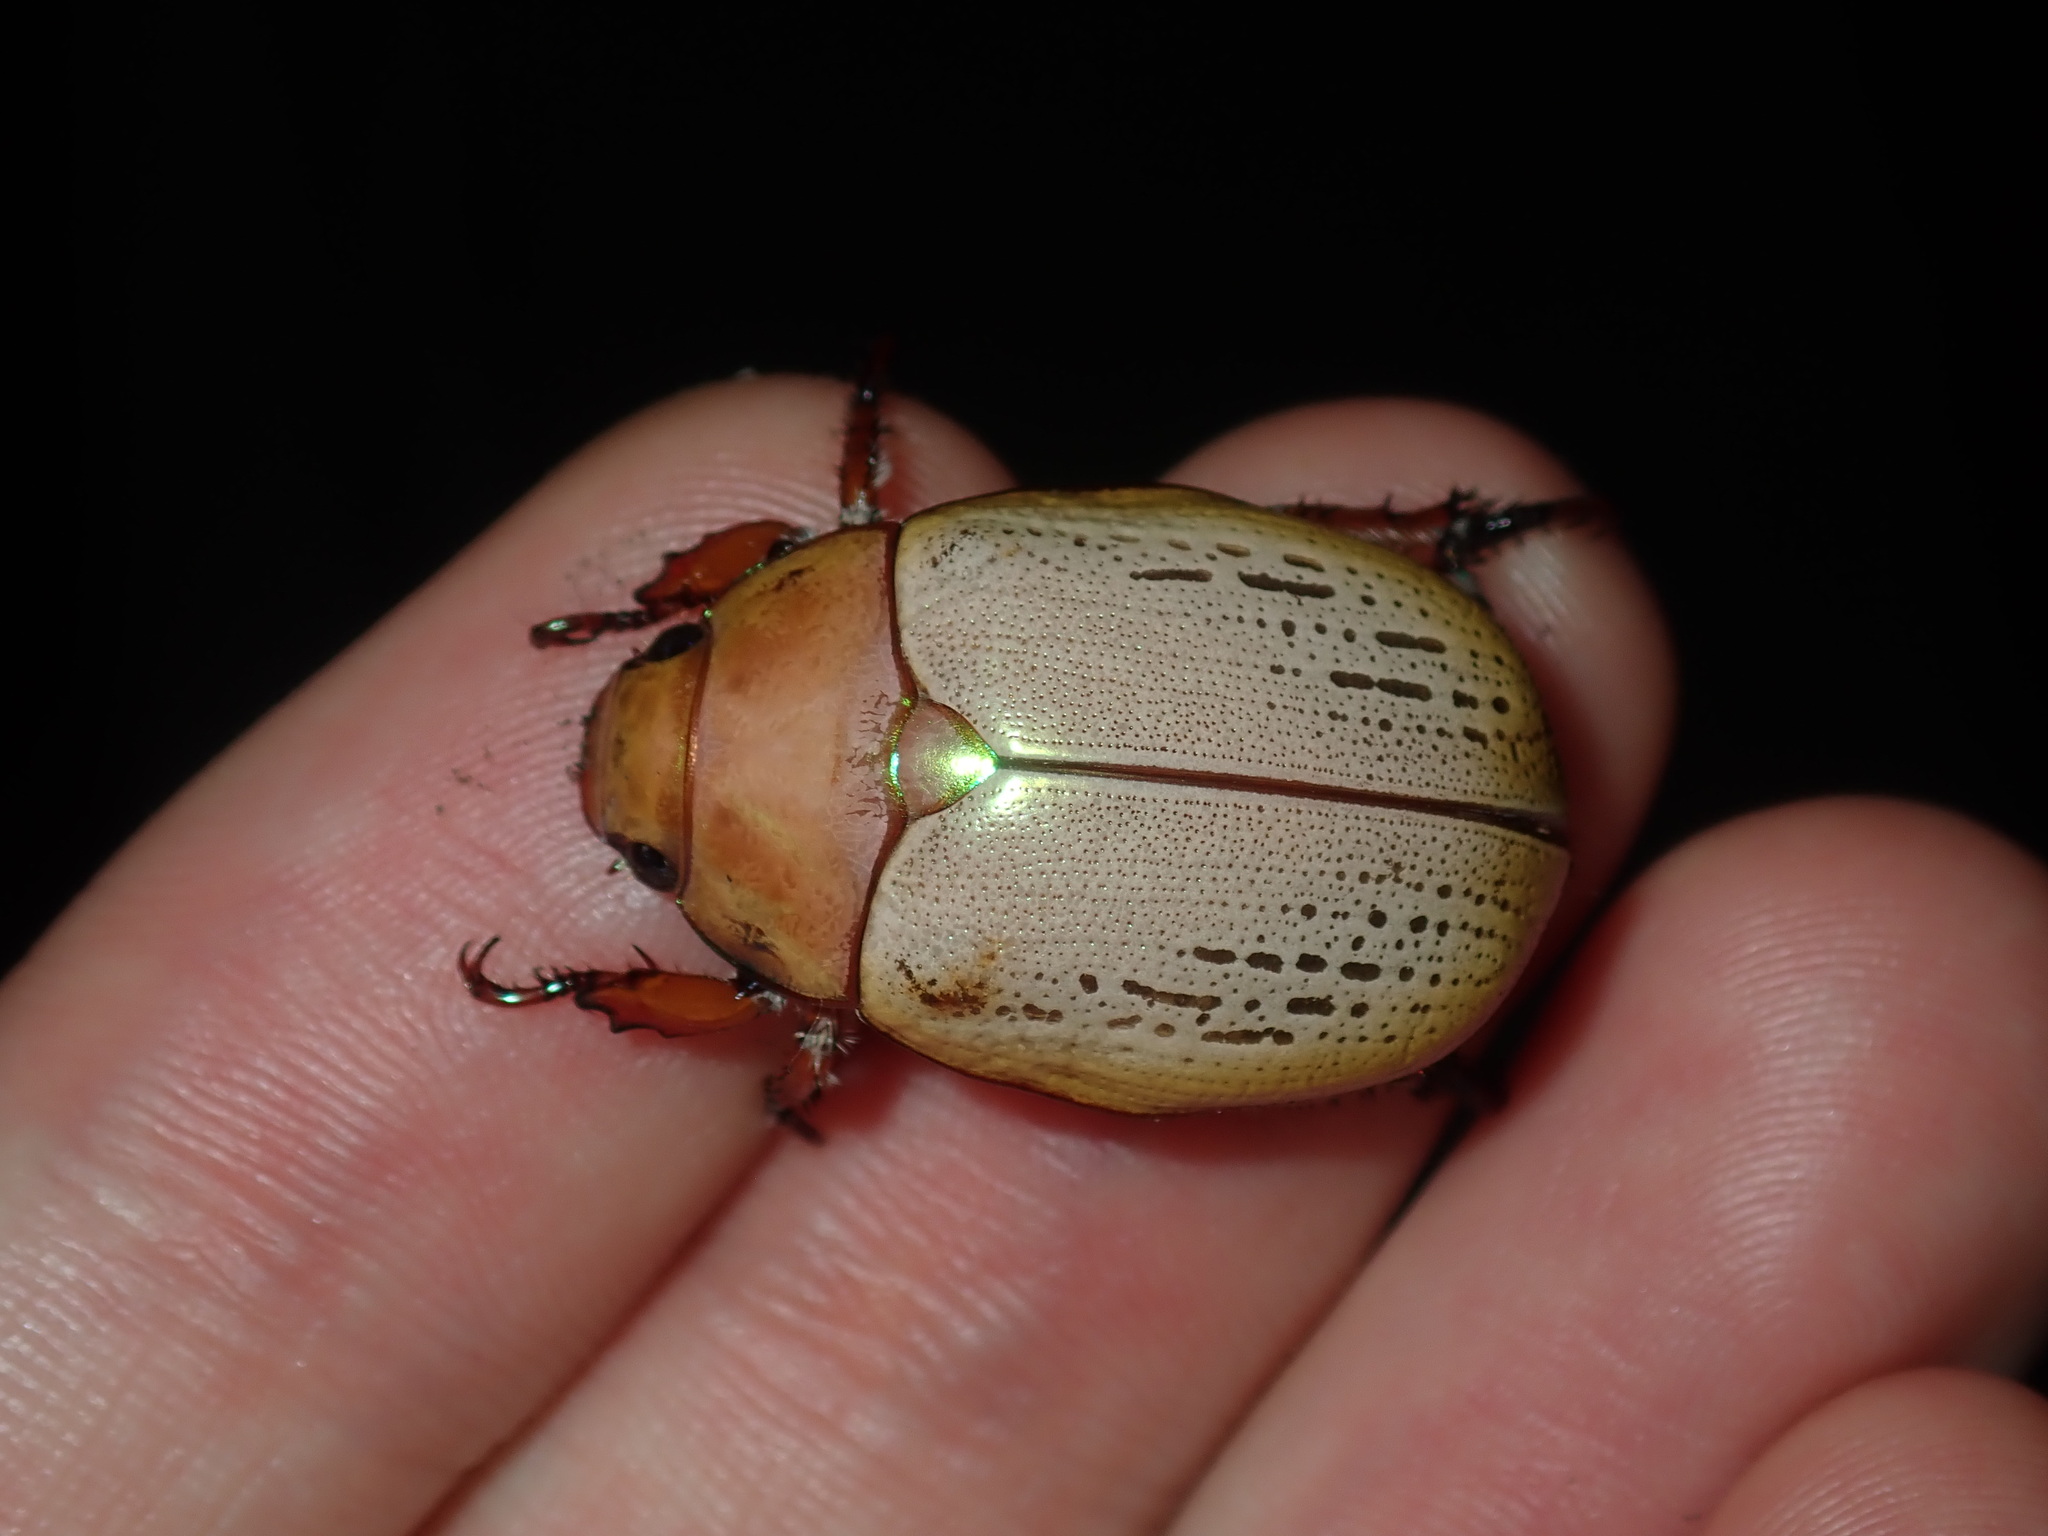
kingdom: Animalia
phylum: Arthropoda
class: Insecta
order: Coleoptera
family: Scarabaeidae
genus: Anoplognathus
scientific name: Anoplognathus olivieri
